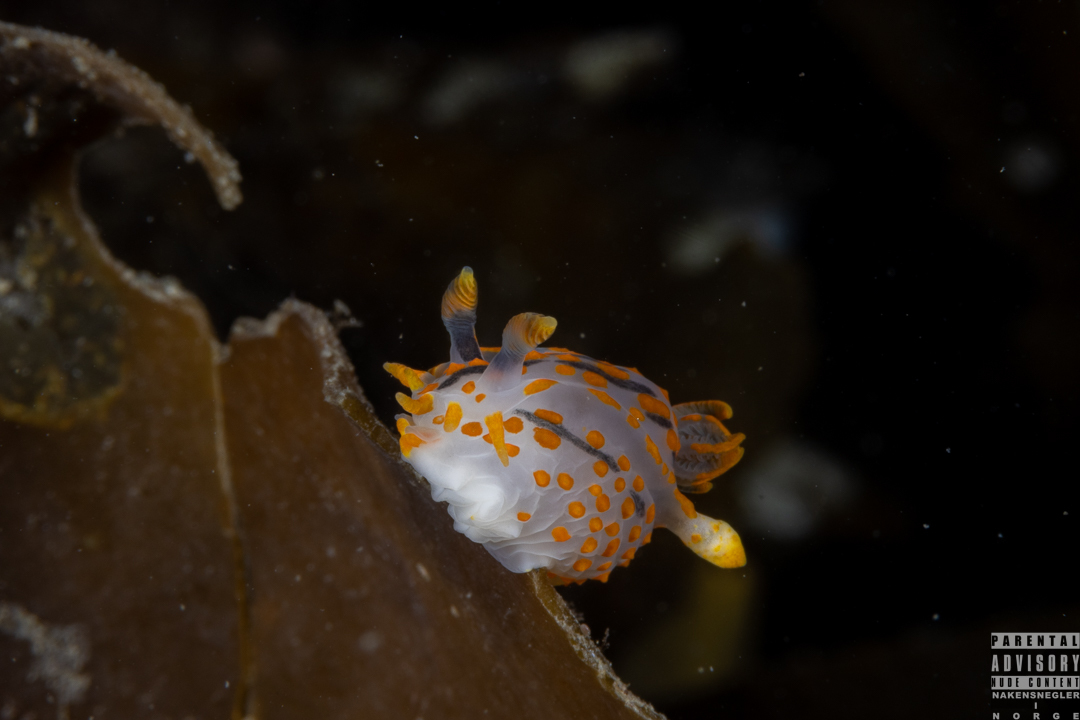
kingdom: Animalia
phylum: Mollusca
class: Gastropoda
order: Nudibranchia
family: Polyceridae
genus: Polycera
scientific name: Polycera quadrilineata
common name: Four-striped polycera
